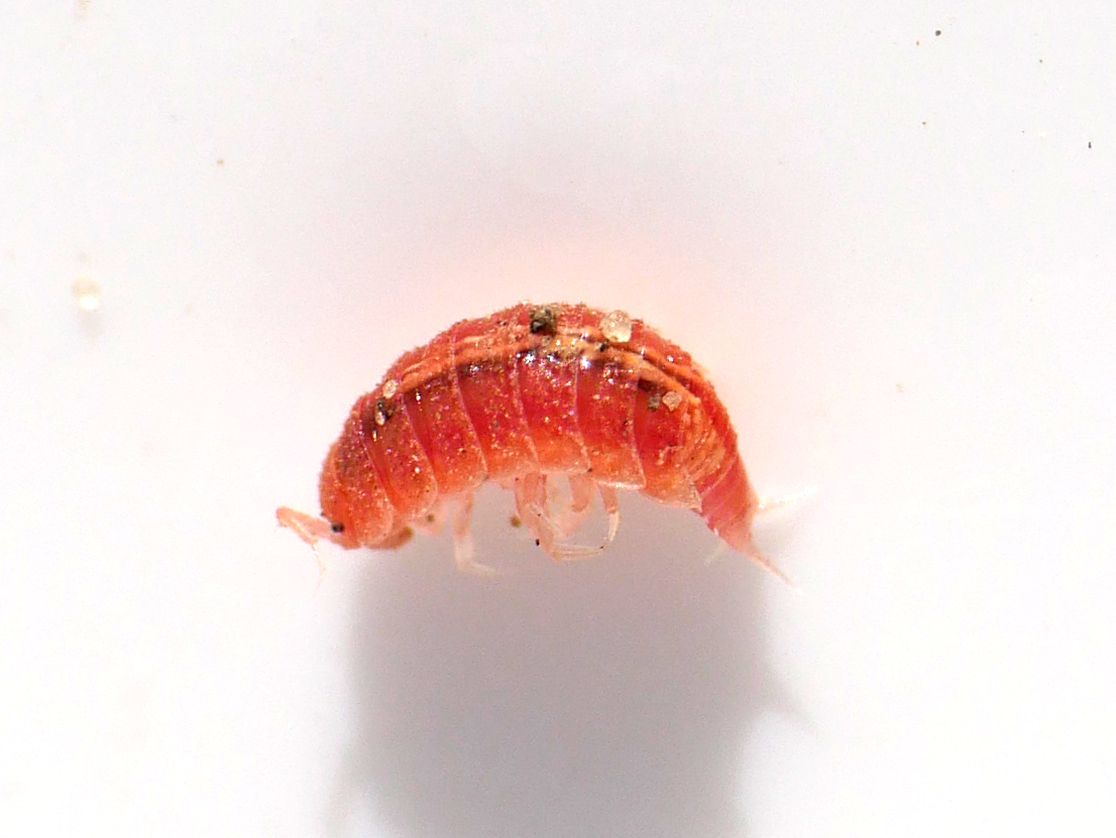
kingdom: Animalia
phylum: Arthropoda
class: Malacostraca
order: Isopoda
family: Trichoniscidae
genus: Androniscus
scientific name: Androniscus dentiger
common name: Rosy woodlouse
